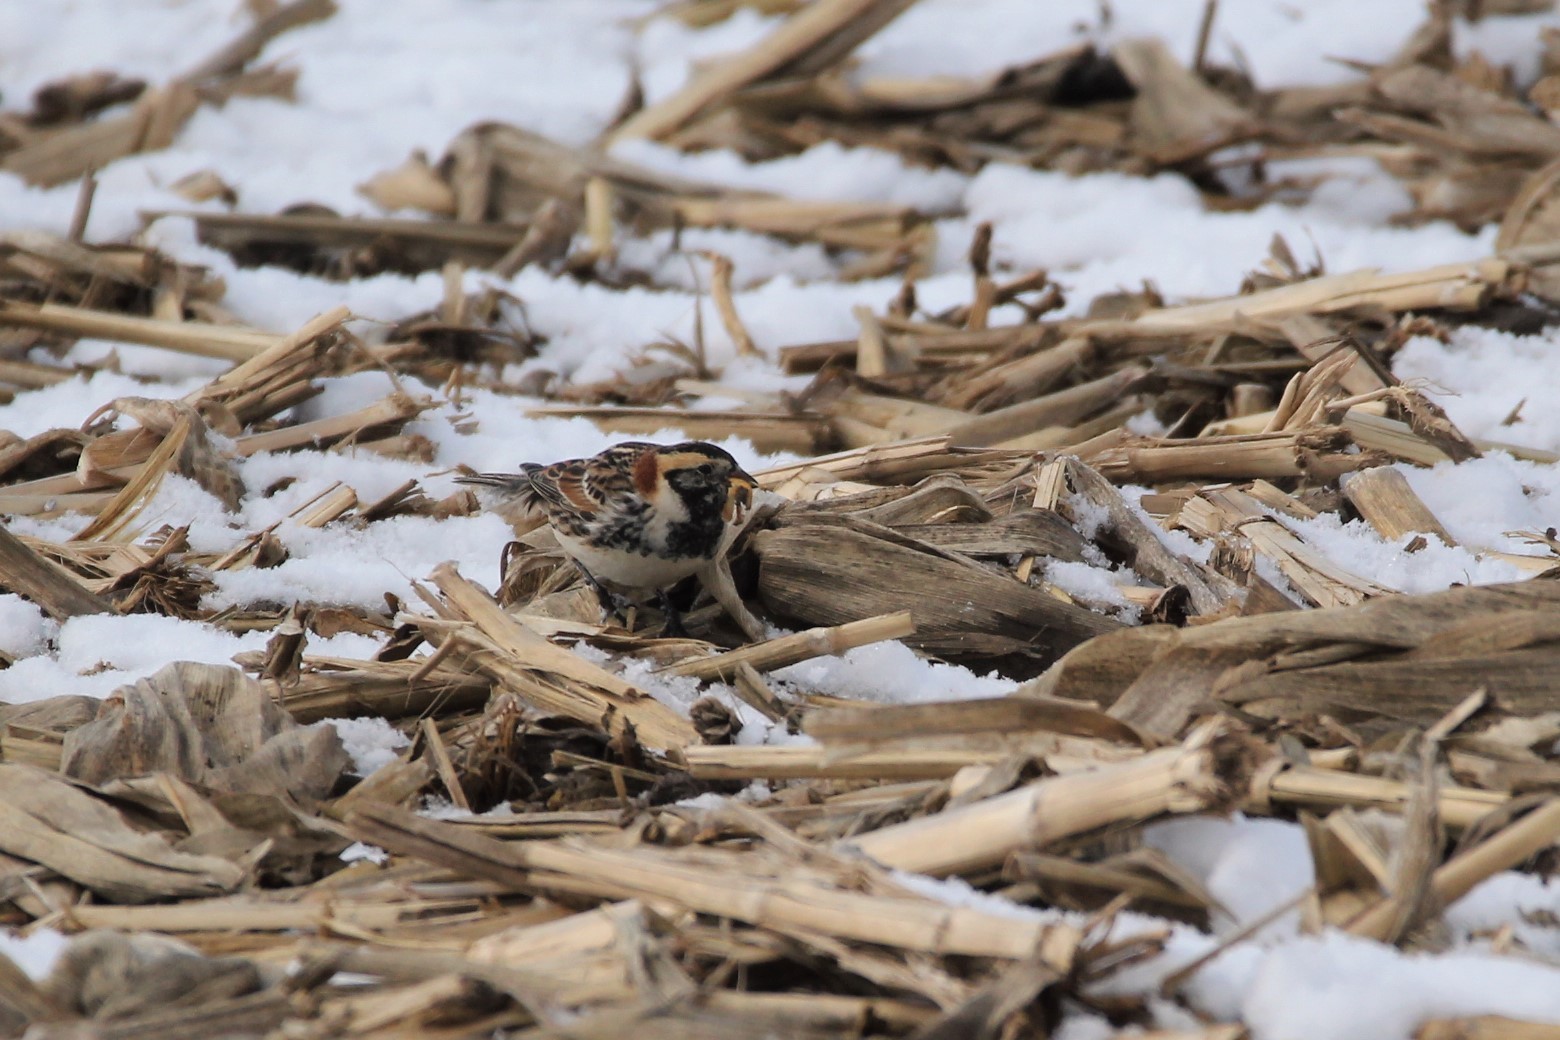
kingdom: Animalia
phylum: Chordata
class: Aves
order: Passeriformes
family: Calcariidae
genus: Calcarius
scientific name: Calcarius lapponicus
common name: Lapland longspur
